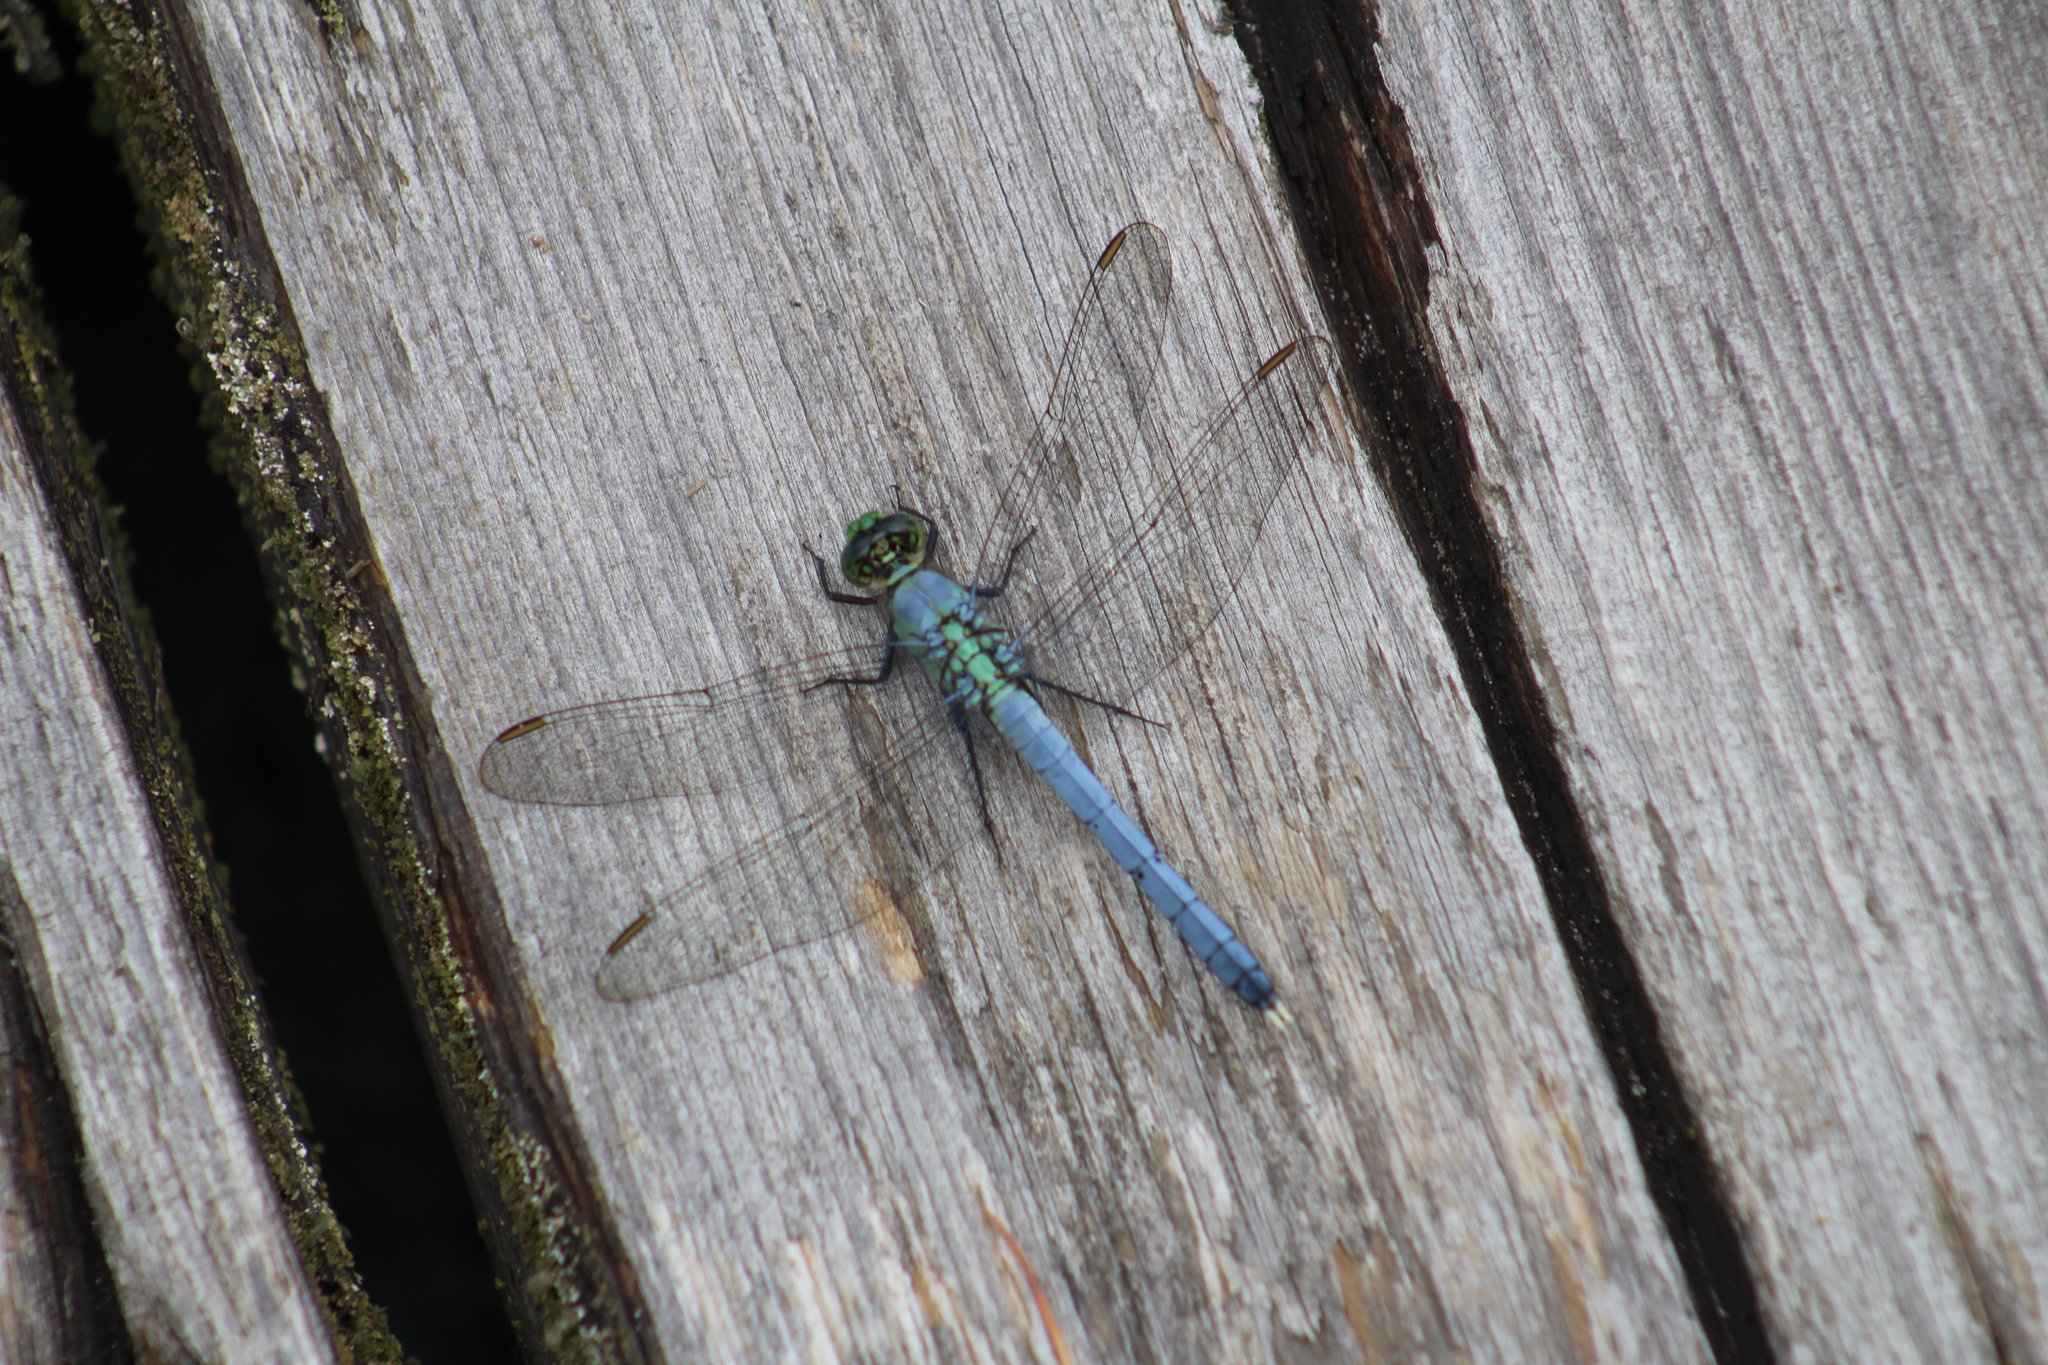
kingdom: Animalia
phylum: Arthropoda
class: Insecta
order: Odonata
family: Libellulidae
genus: Erythemis
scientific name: Erythemis simplicicollis
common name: Eastern pondhawk
